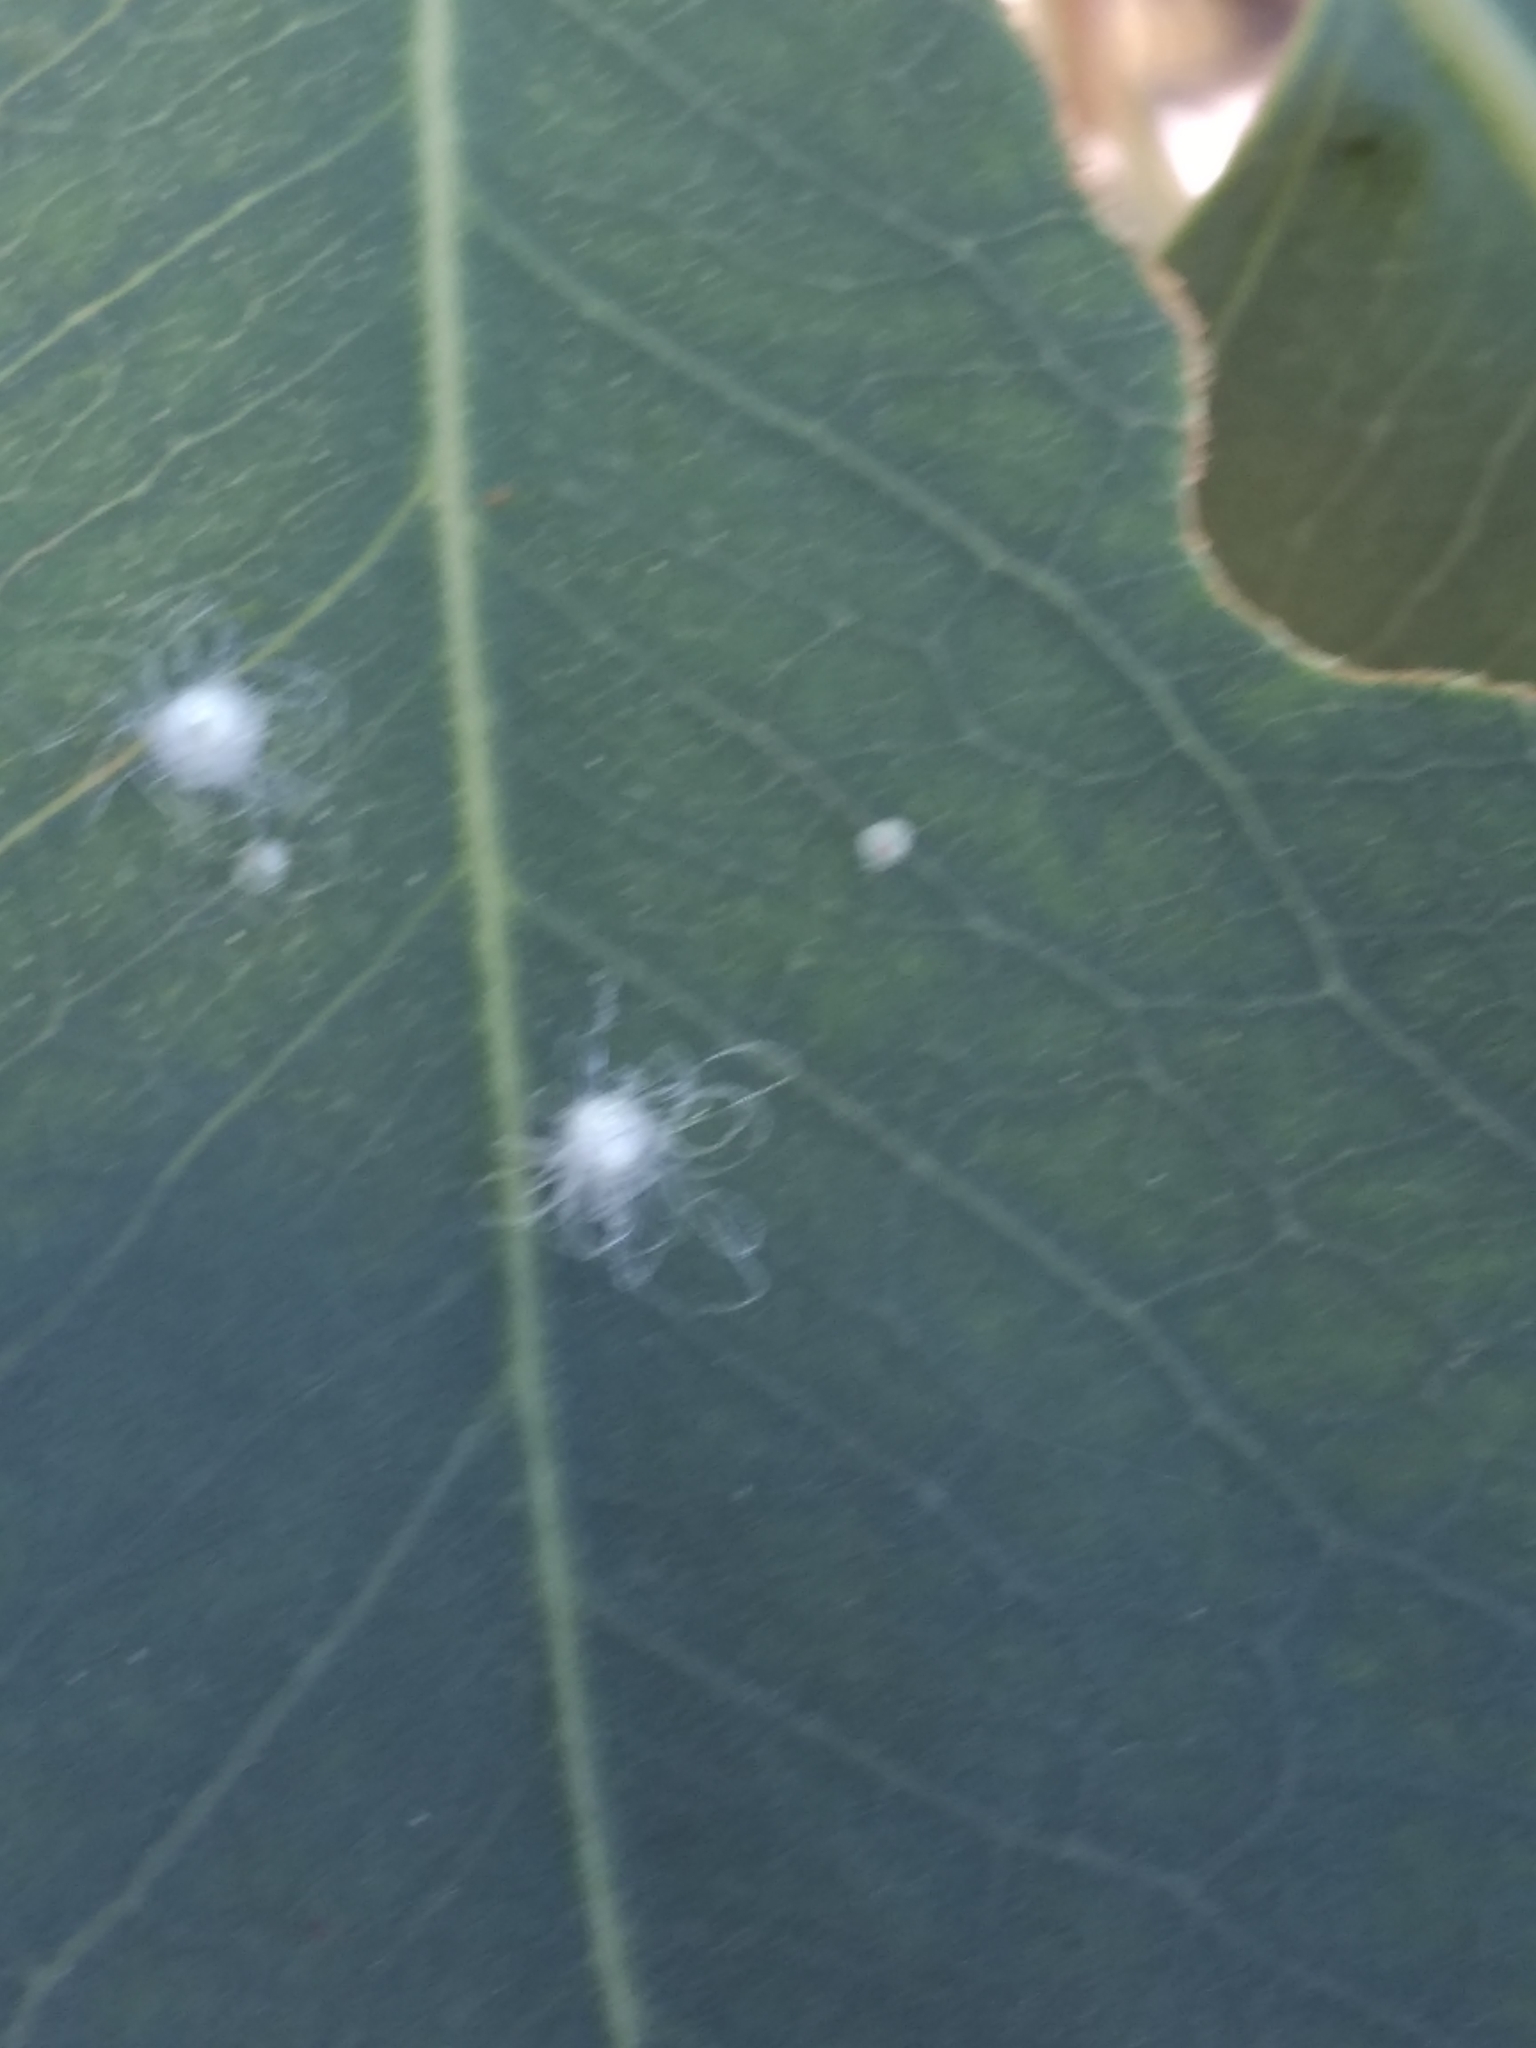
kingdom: Animalia
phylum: Arthropoda
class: Insecta
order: Hemiptera
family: Aphalaridae
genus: Glycaspis
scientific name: Glycaspis brimblecombei
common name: Red gum lerp psyllid
